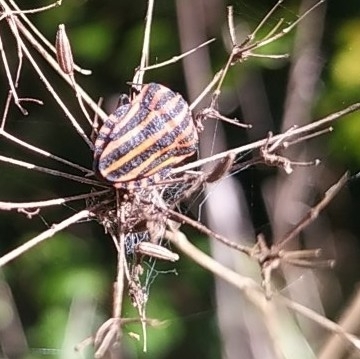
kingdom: Animalia
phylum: Arthropoda
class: Insecta
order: Hemiptera
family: Pentatomidae
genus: Graphosoma
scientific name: Graphosoma italicum
